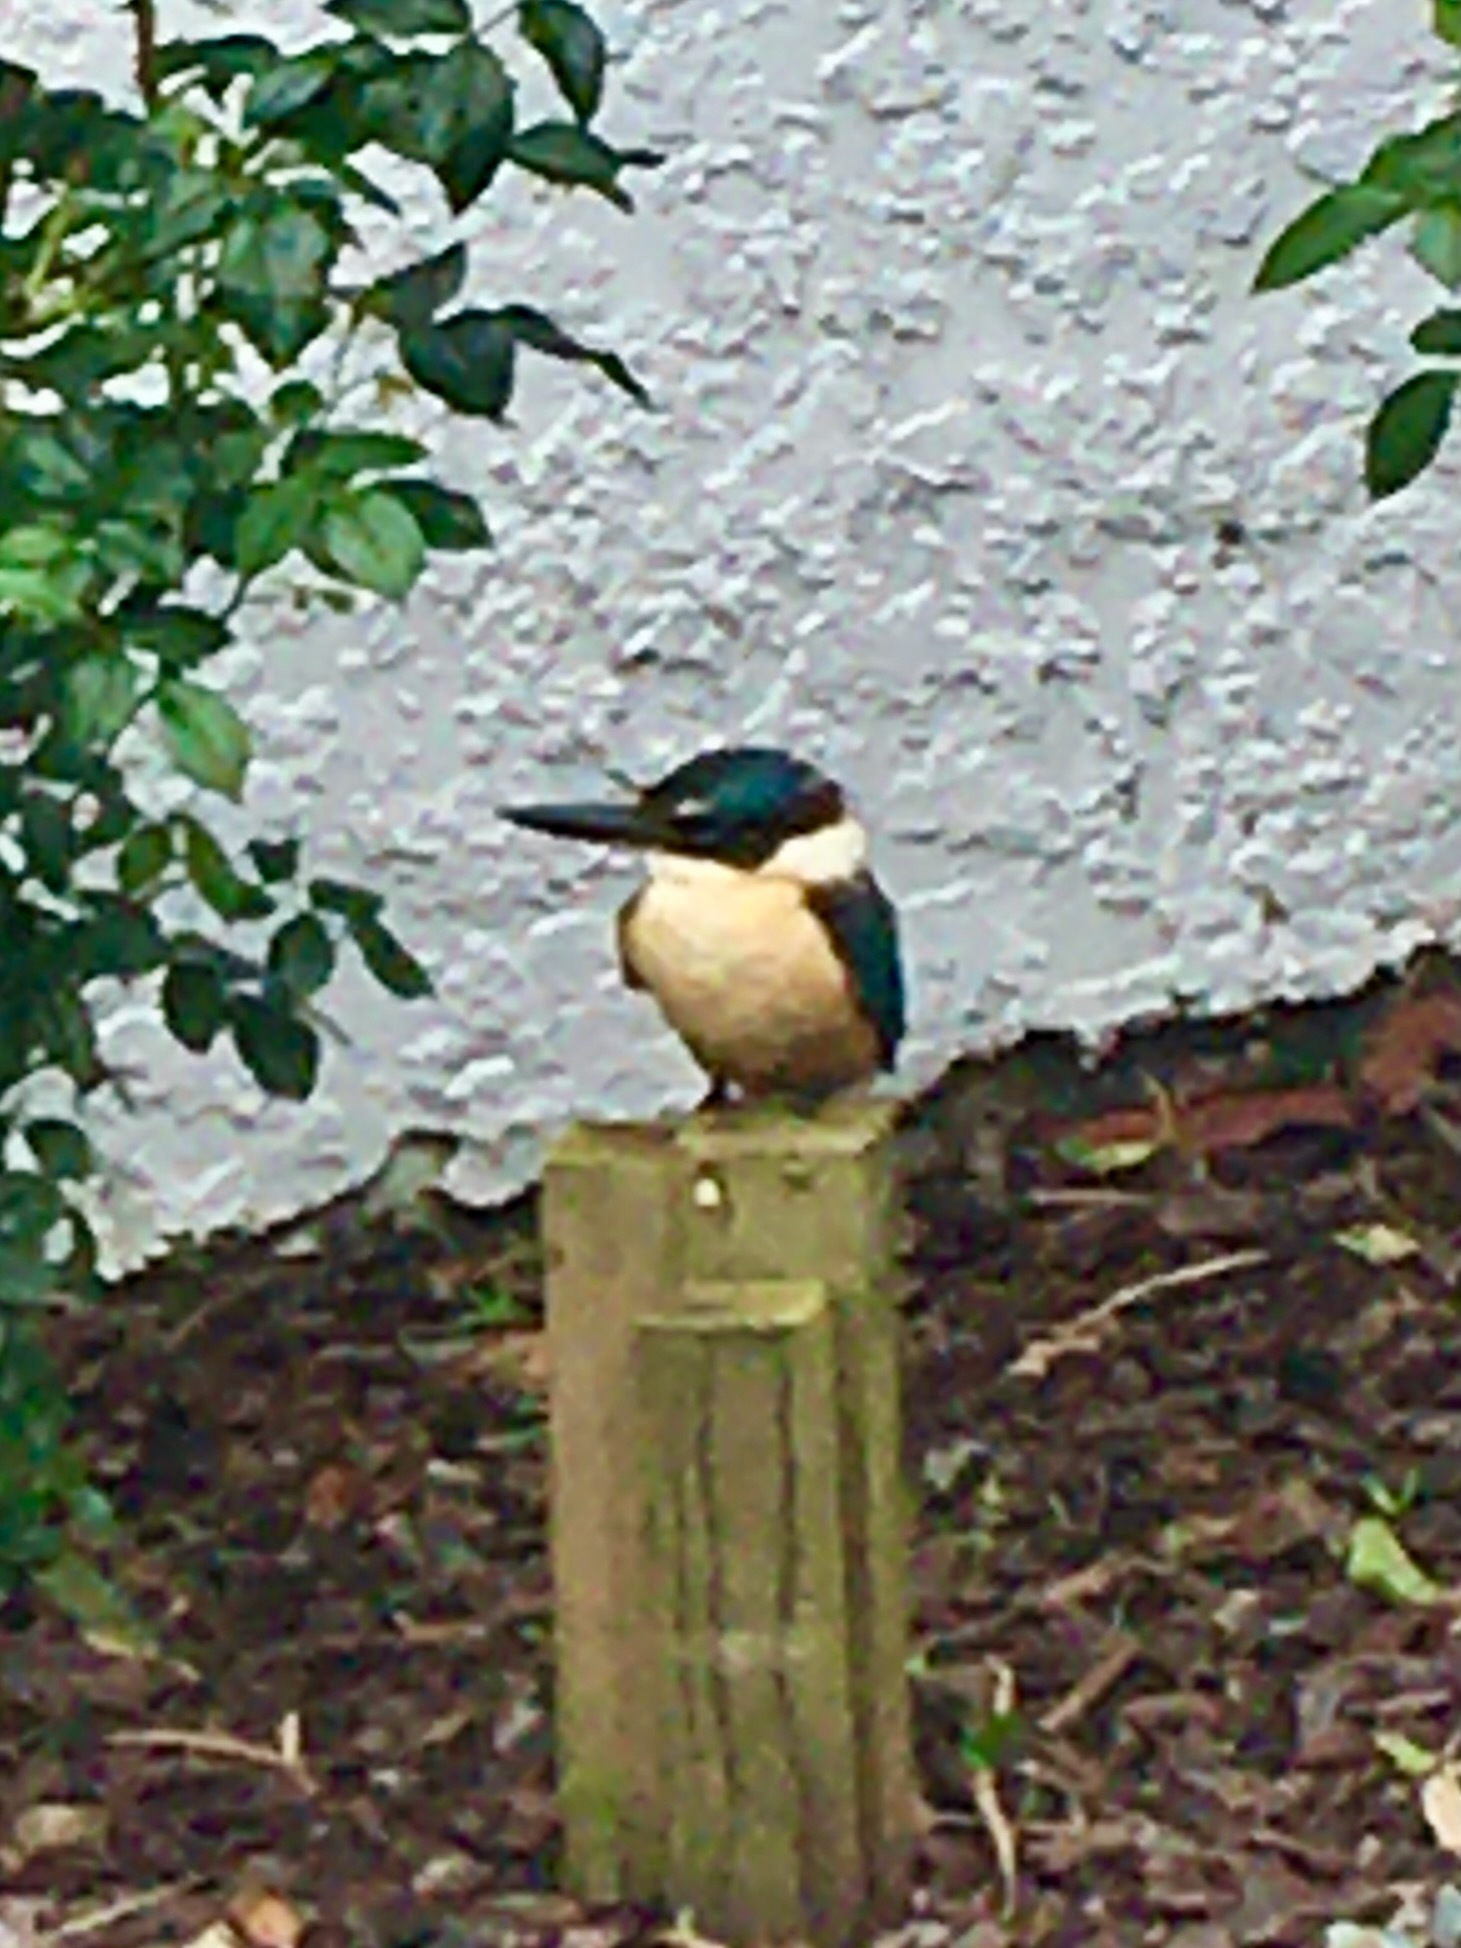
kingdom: Animalia
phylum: Chordata
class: Aves
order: Coraciiformes
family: Alcedinidae
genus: Todiramphus
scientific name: Todiramphus sanctus
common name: Sacred kingfisher
